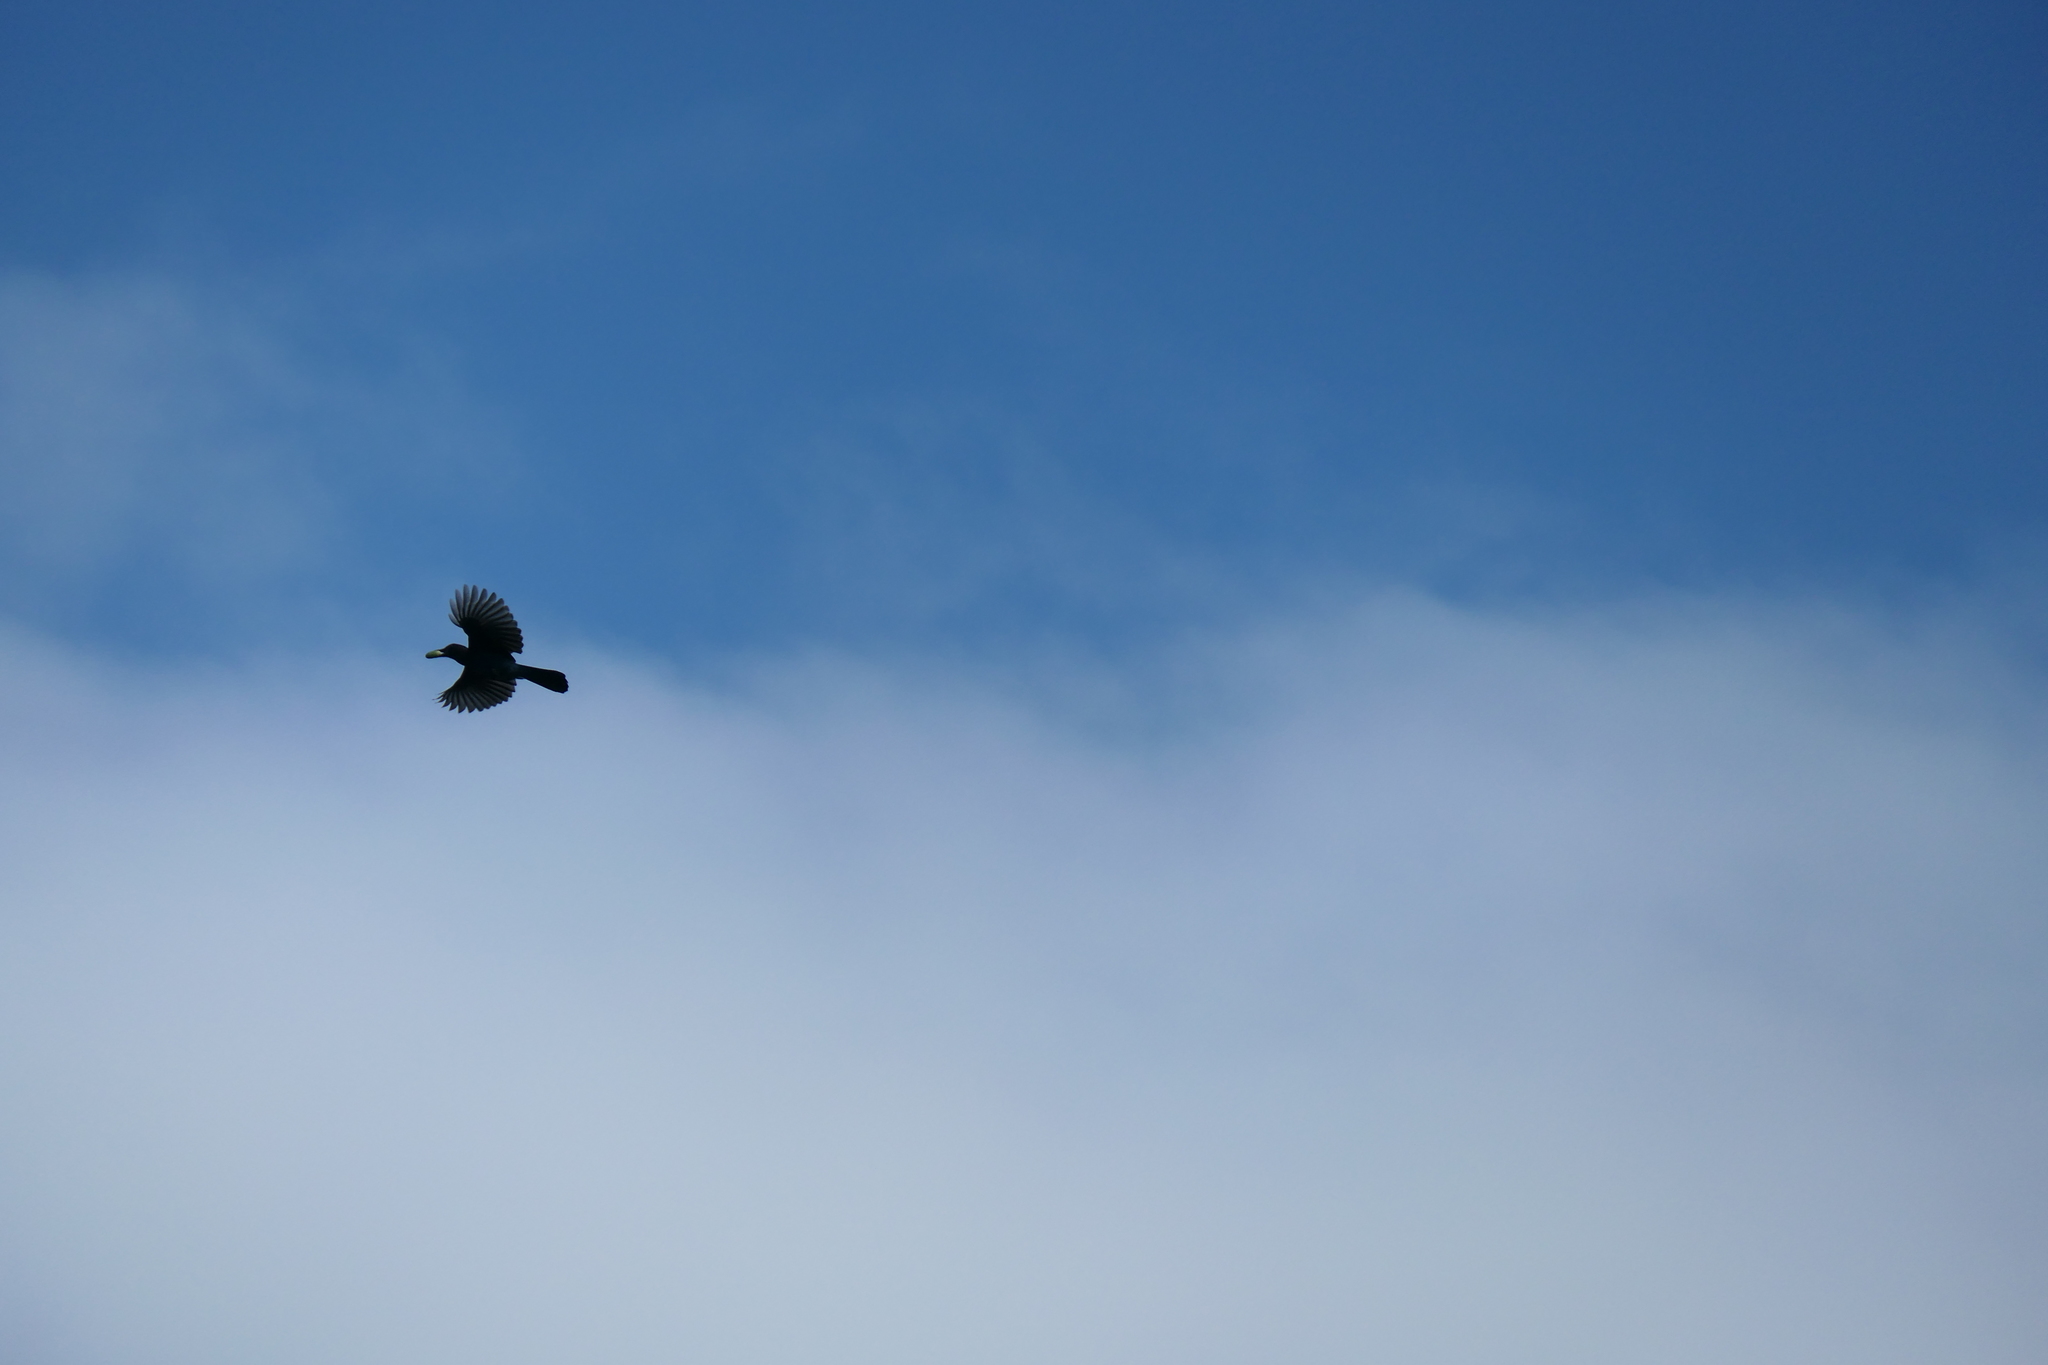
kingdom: Animalia
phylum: Chordata
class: Aves
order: Passeriformes
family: Corvidae
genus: Cyanocitta
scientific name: Cyanocitta stelleri
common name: Steller's jay
